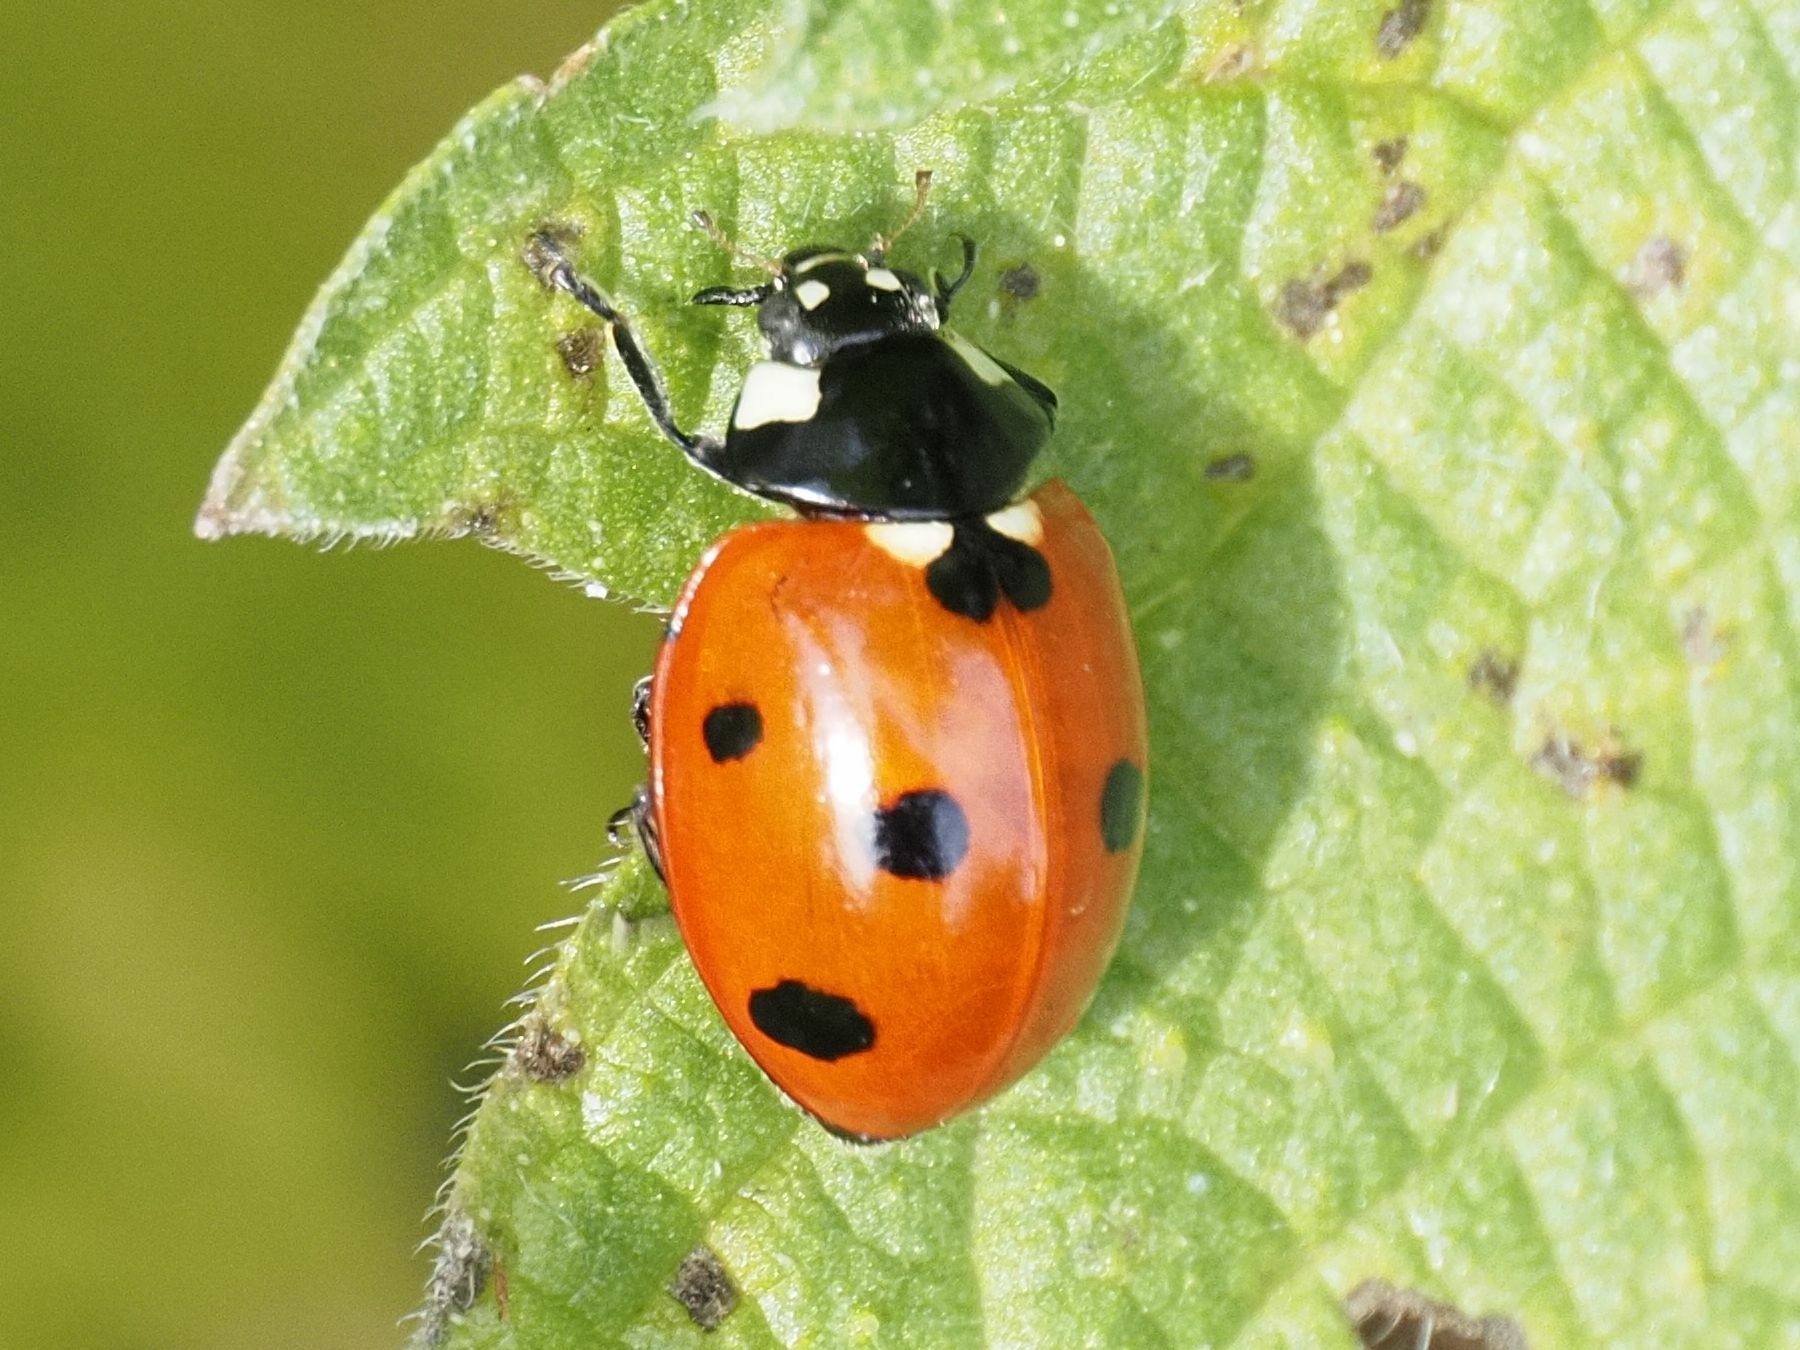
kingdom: Animalia
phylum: Arthropoda
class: Insecta
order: Coleoptera
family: Coccinellidae
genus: Coccinella
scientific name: Coccinella septempunctata
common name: Sevenspotted lady beetle
